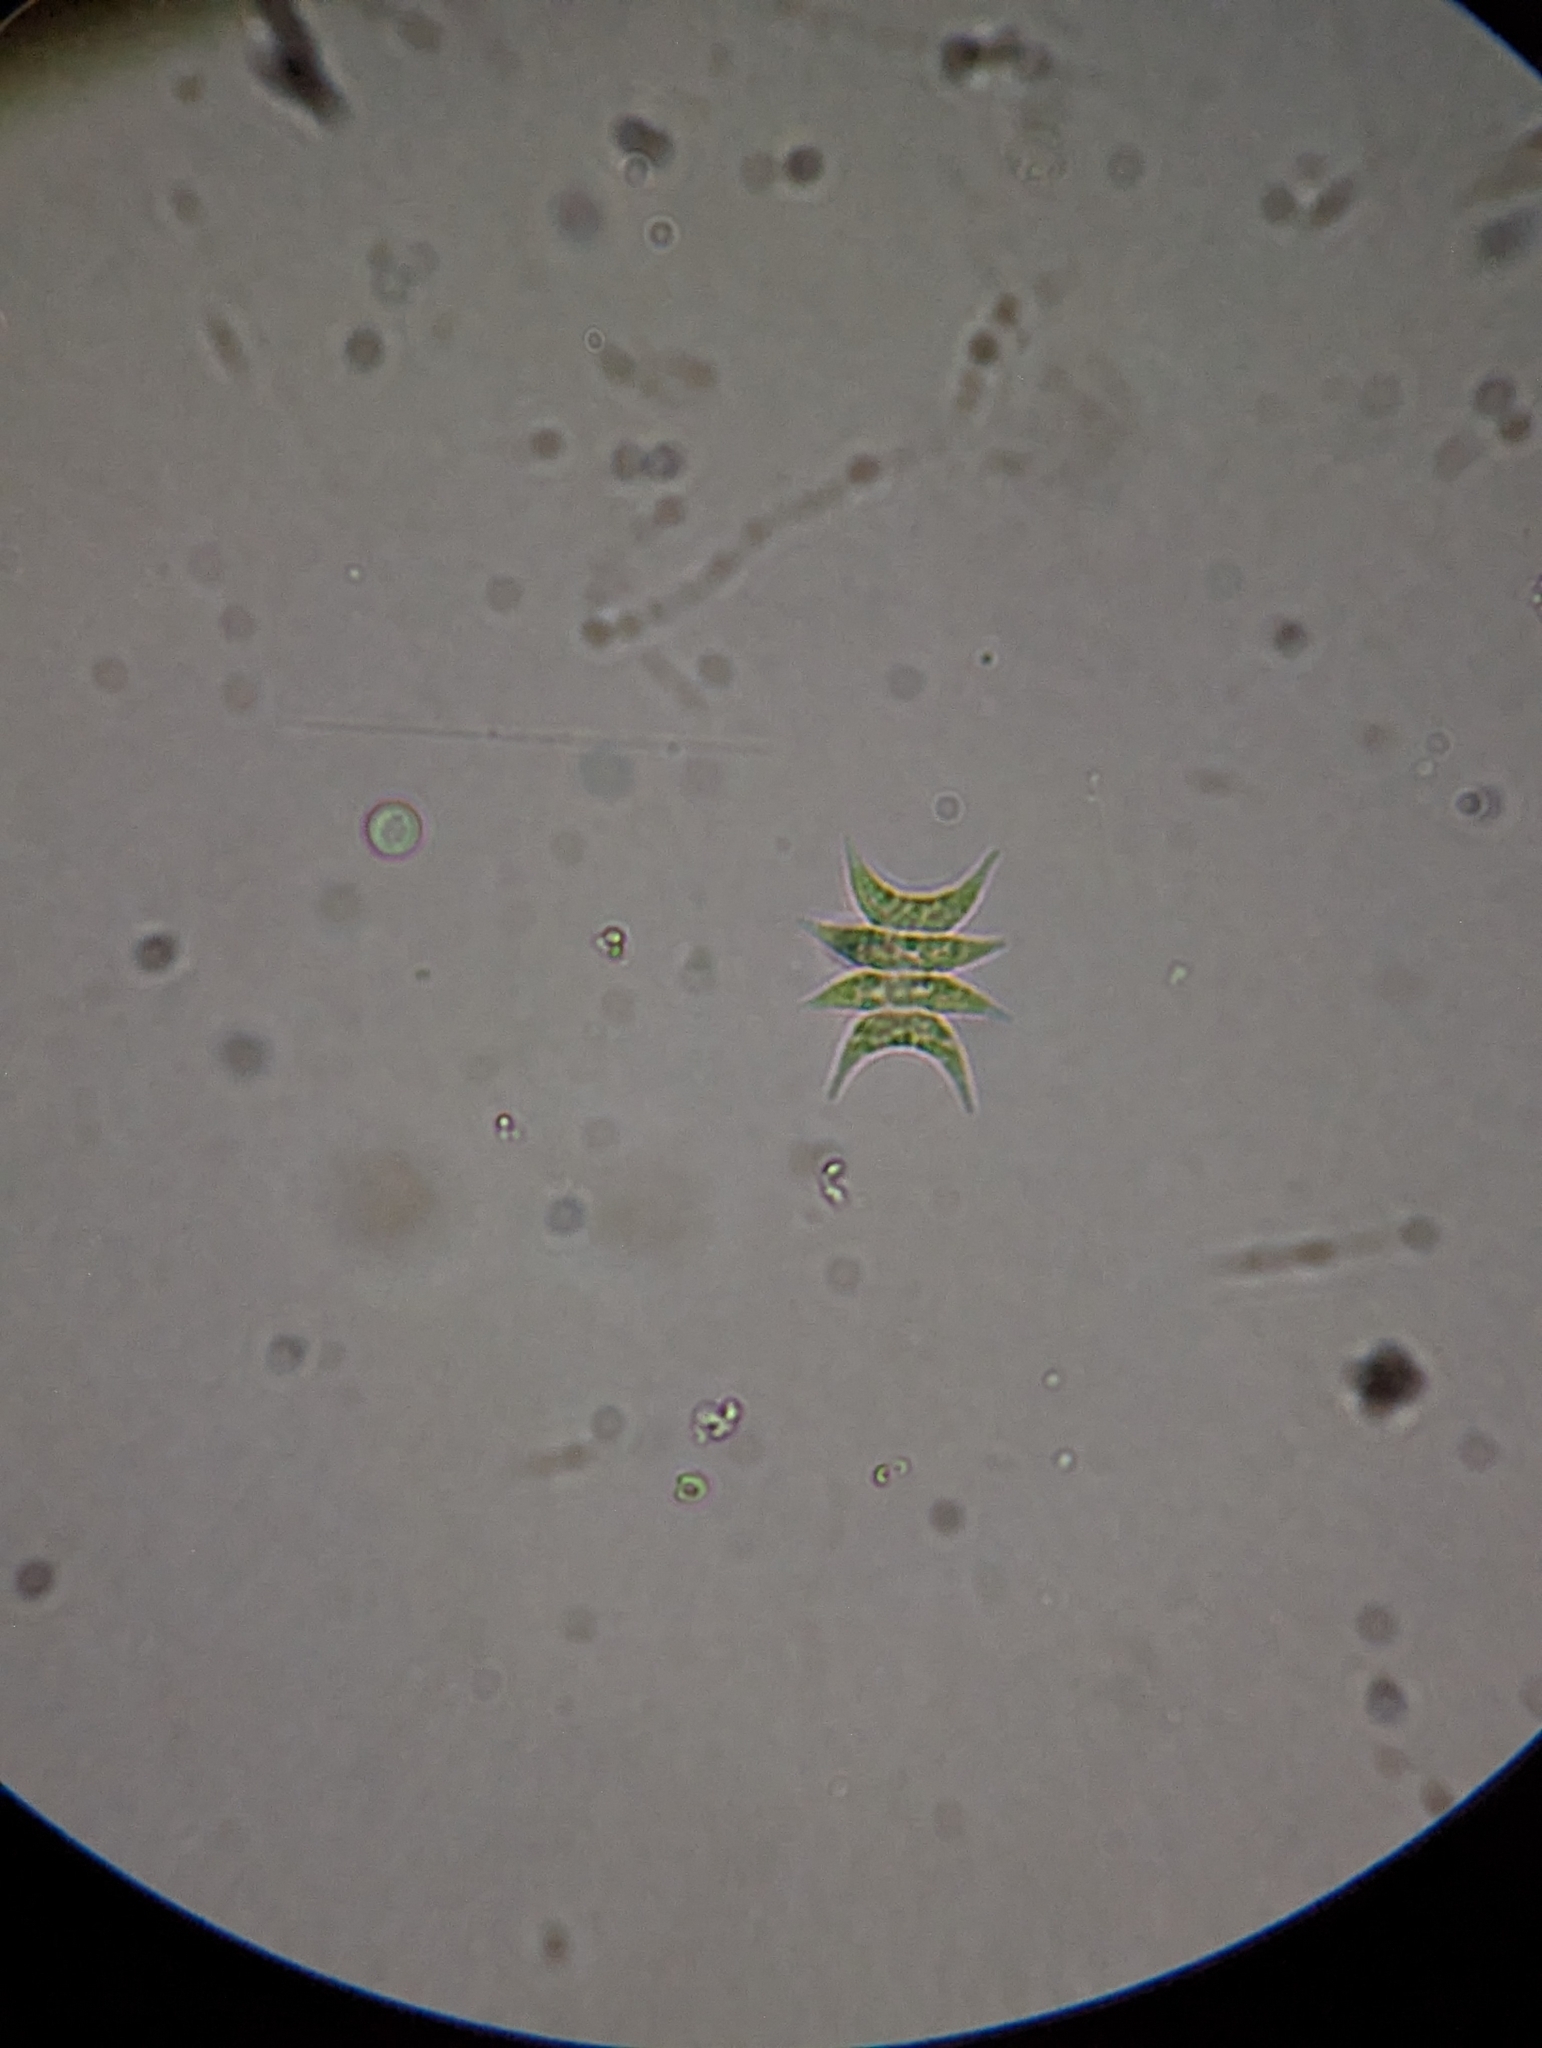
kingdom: Plantae
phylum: Chlorophyta
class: Chlorophyceae
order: Sphaeropleales
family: Scenedesmaceae
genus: Tetradesmus
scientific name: Tetradesmus lagerheimii
